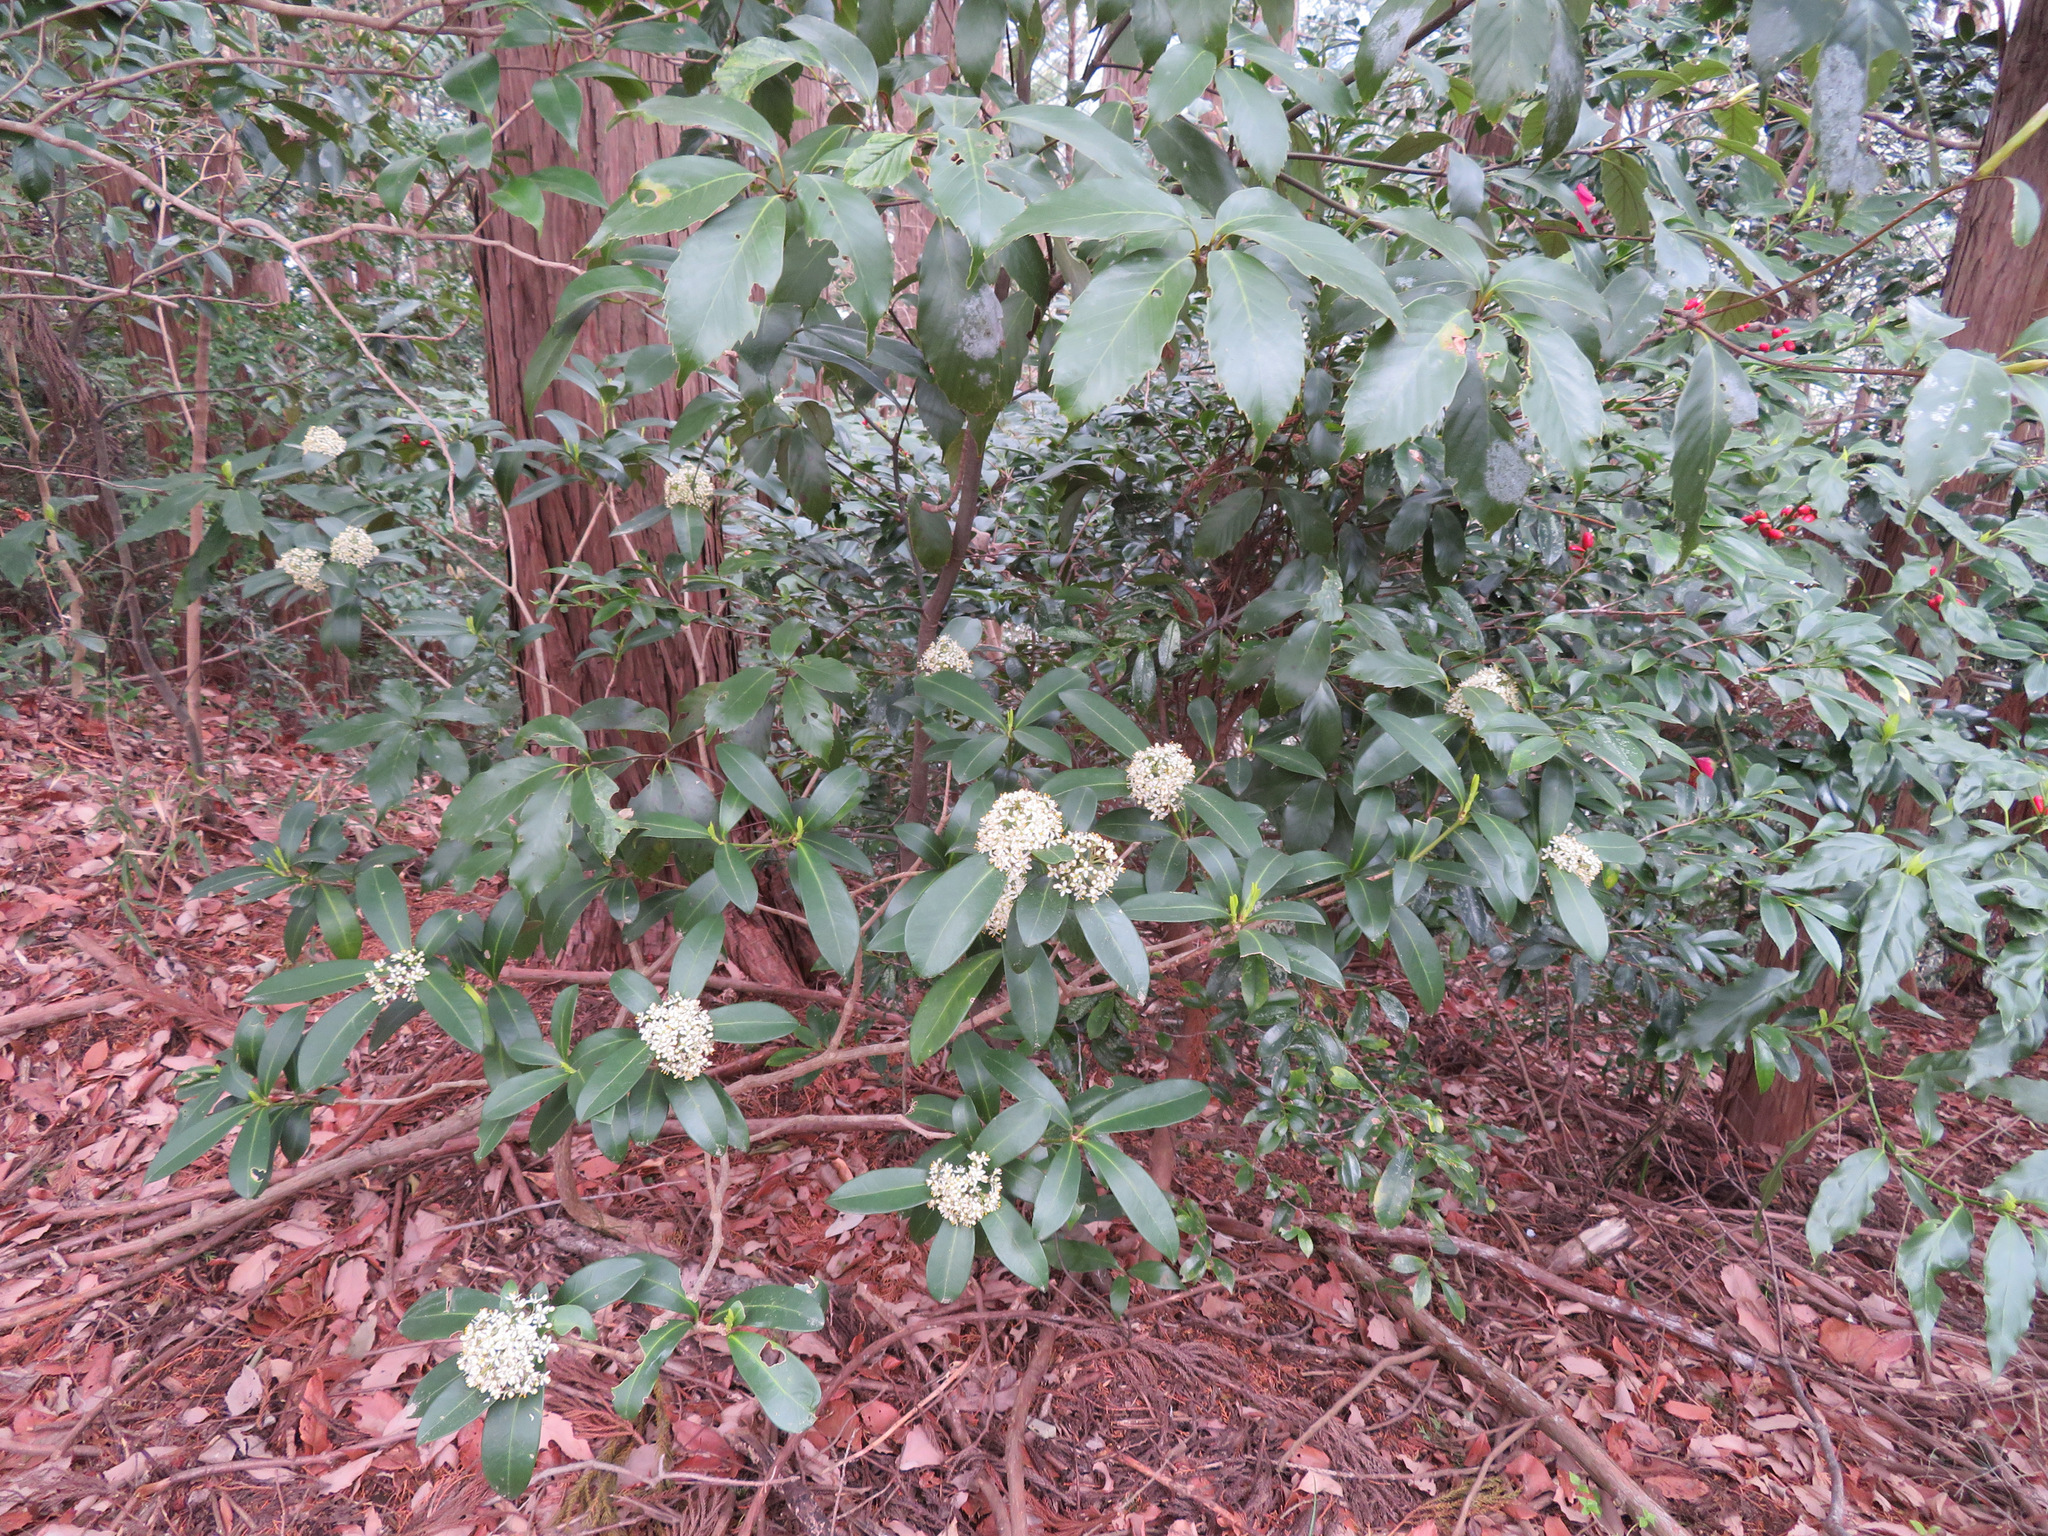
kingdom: Plantae
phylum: Tracheophyta
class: Magnoliopsida
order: Sapindales
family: Rutaceae
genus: Skimmia
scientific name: Skimmia japonica
